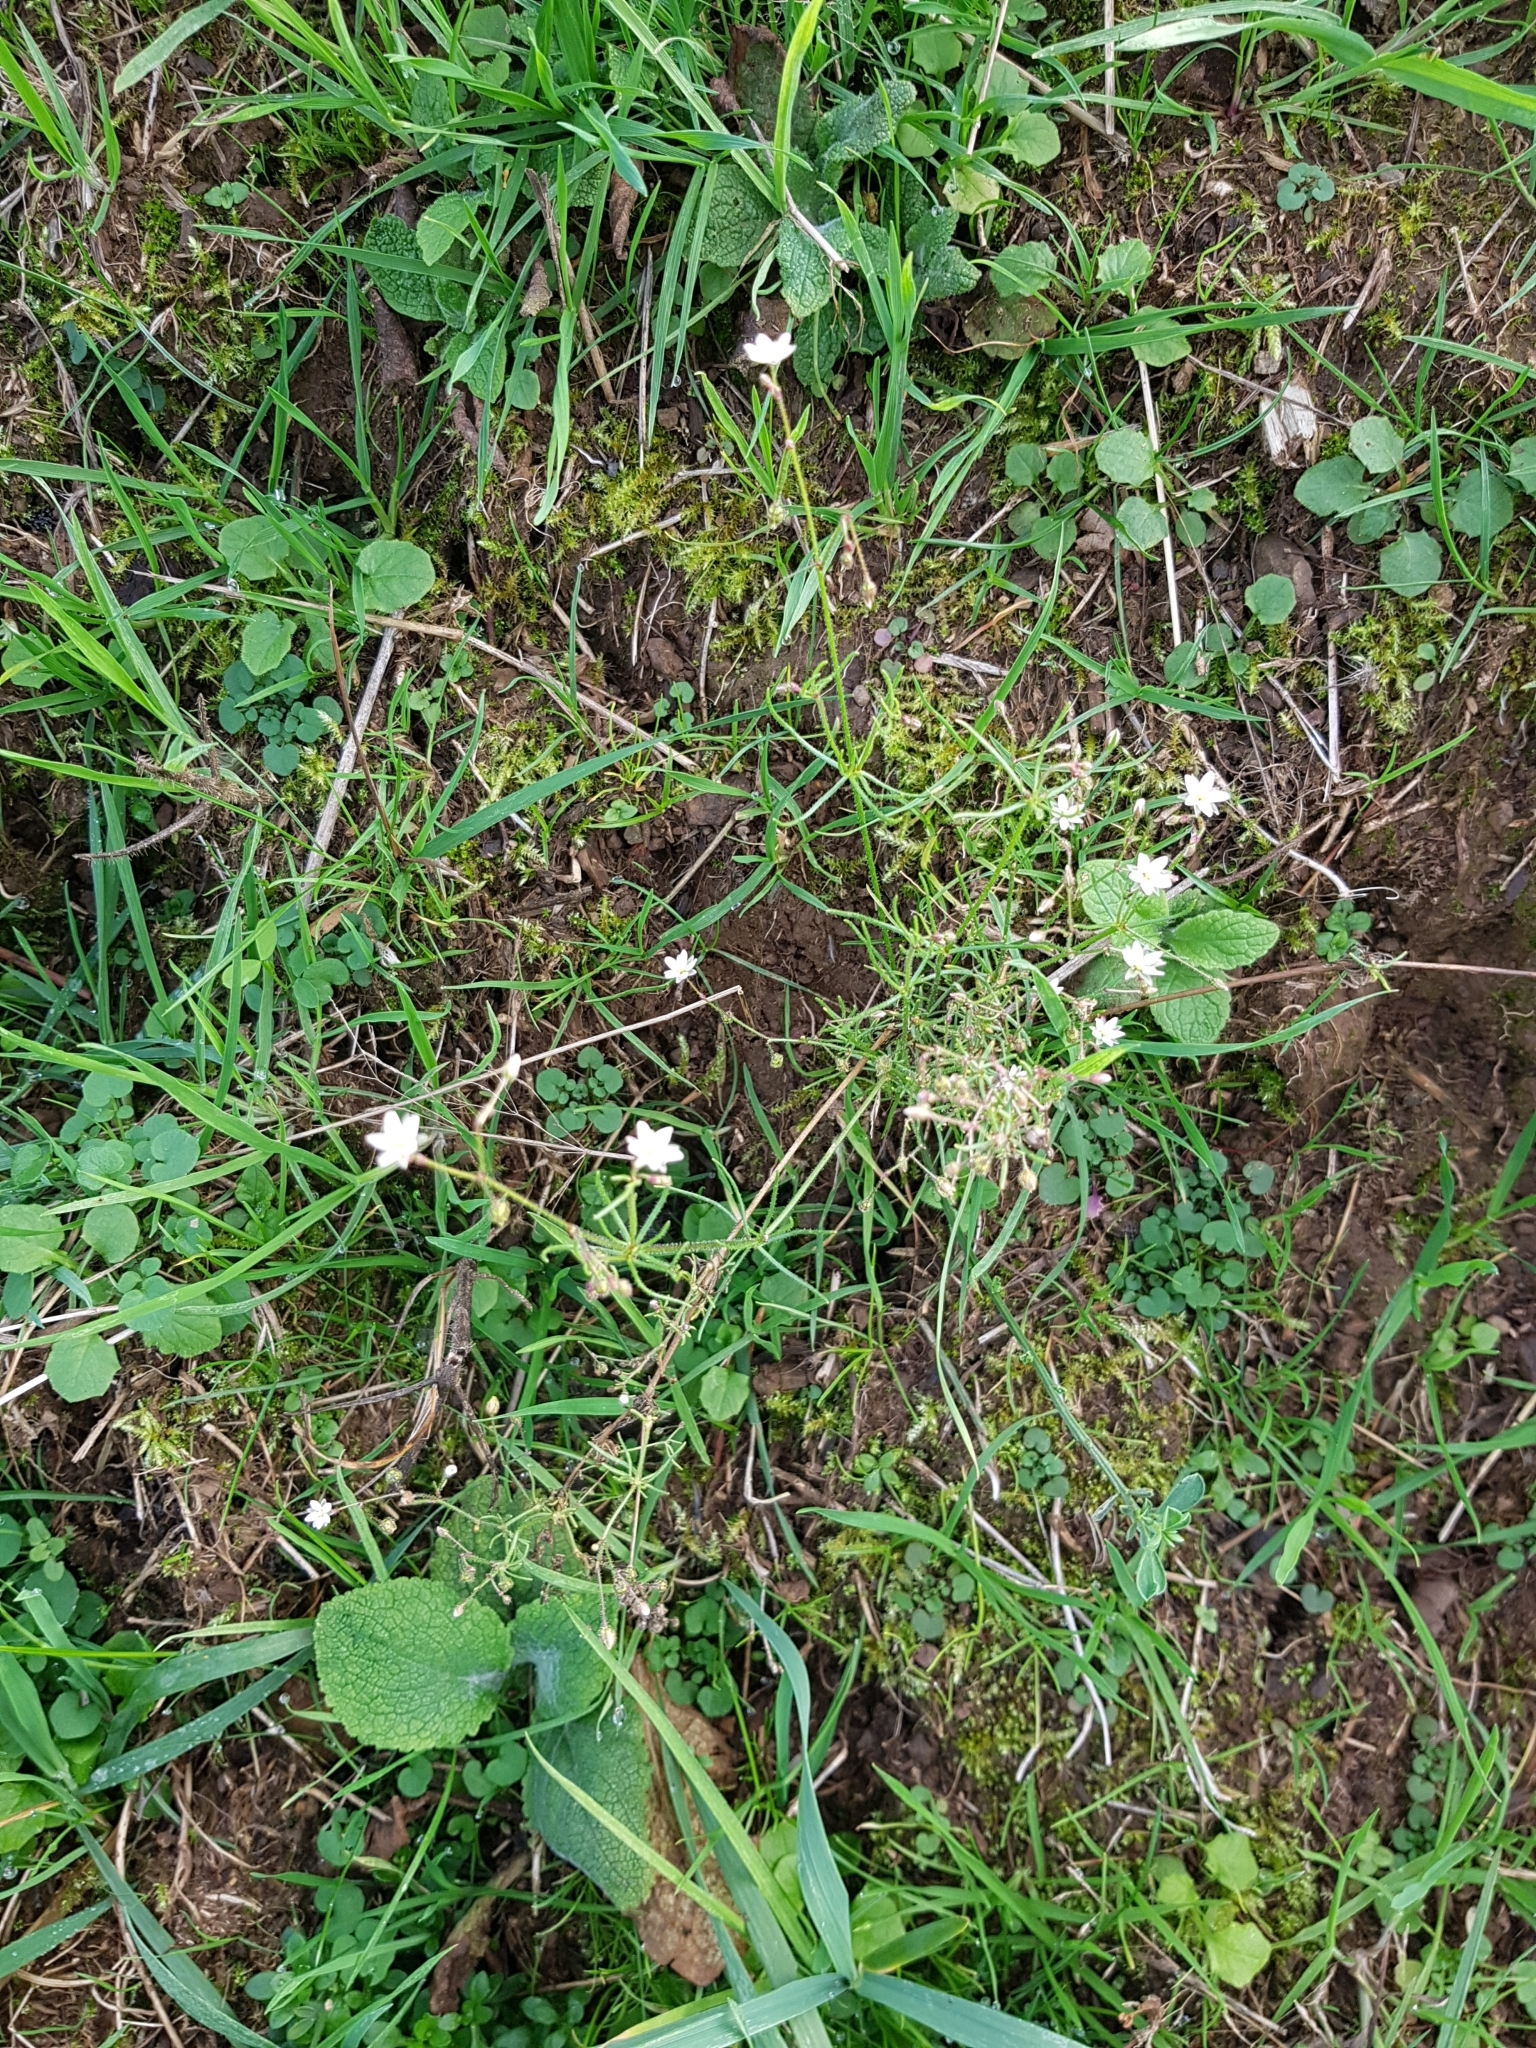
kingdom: Plantae
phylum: Tracheophyta
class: Magnoliopsida
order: Caryophyllales
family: Caryophyllaceae
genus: Spergula
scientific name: Spergula arvensis
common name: Corn spurrey
